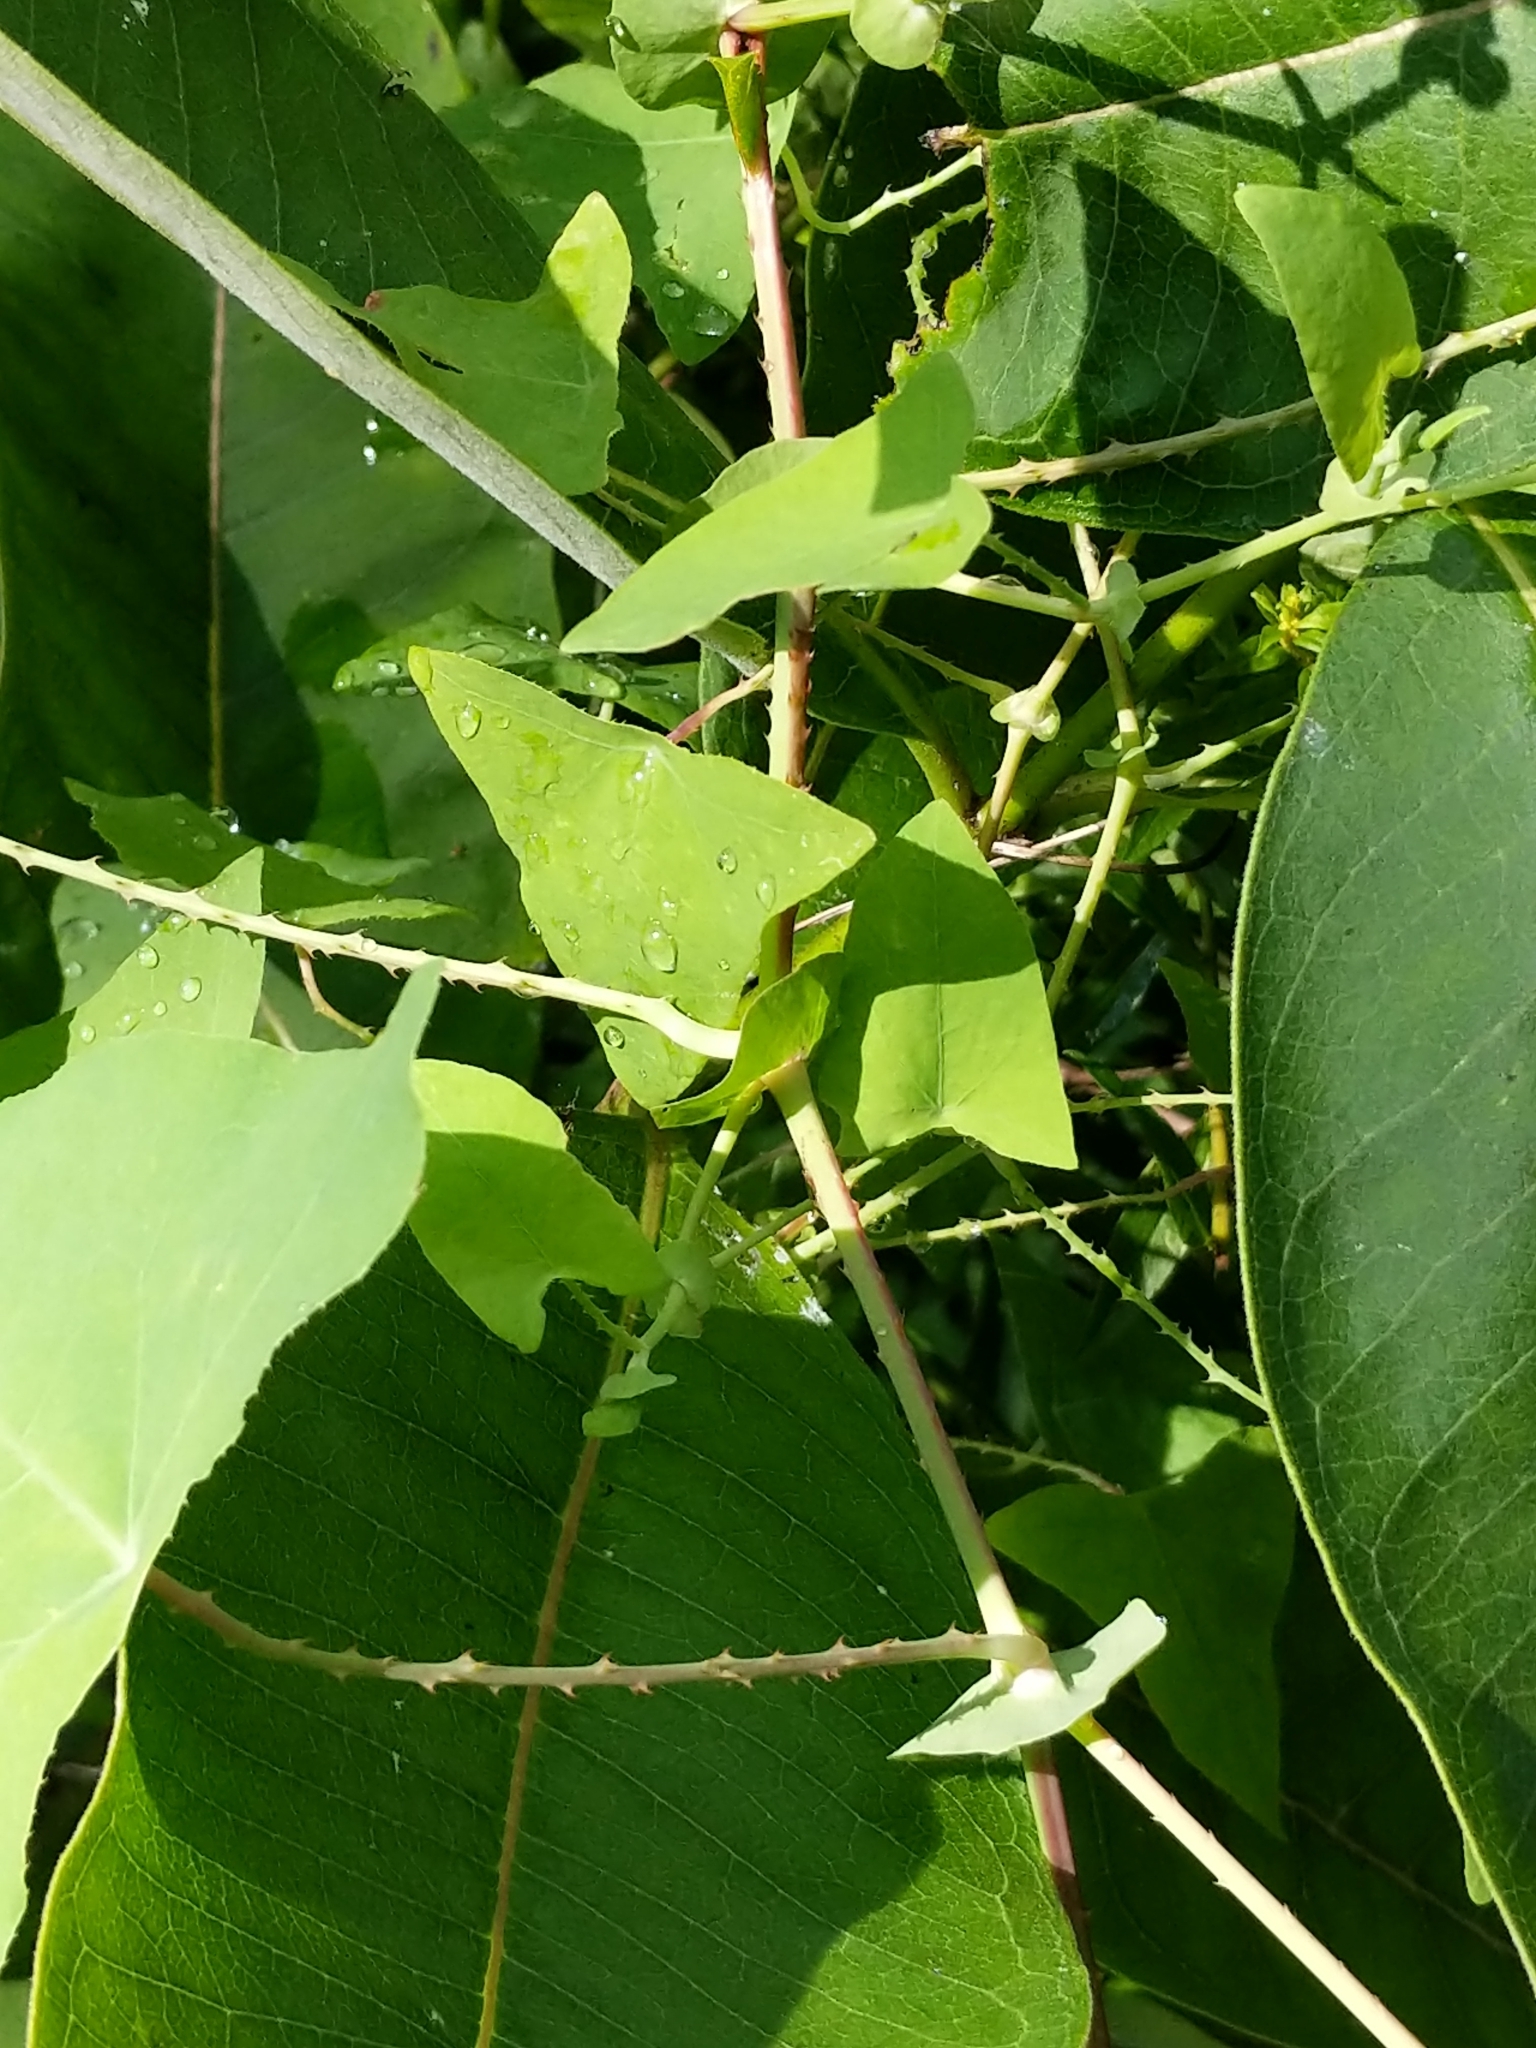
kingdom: Plantae
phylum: Tracheophyta
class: Magnoliopsida
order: Caryophyllales
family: Polygonaceae
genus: Persicaria
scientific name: Persicaria perfoliata
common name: Asiatic tearthumb
